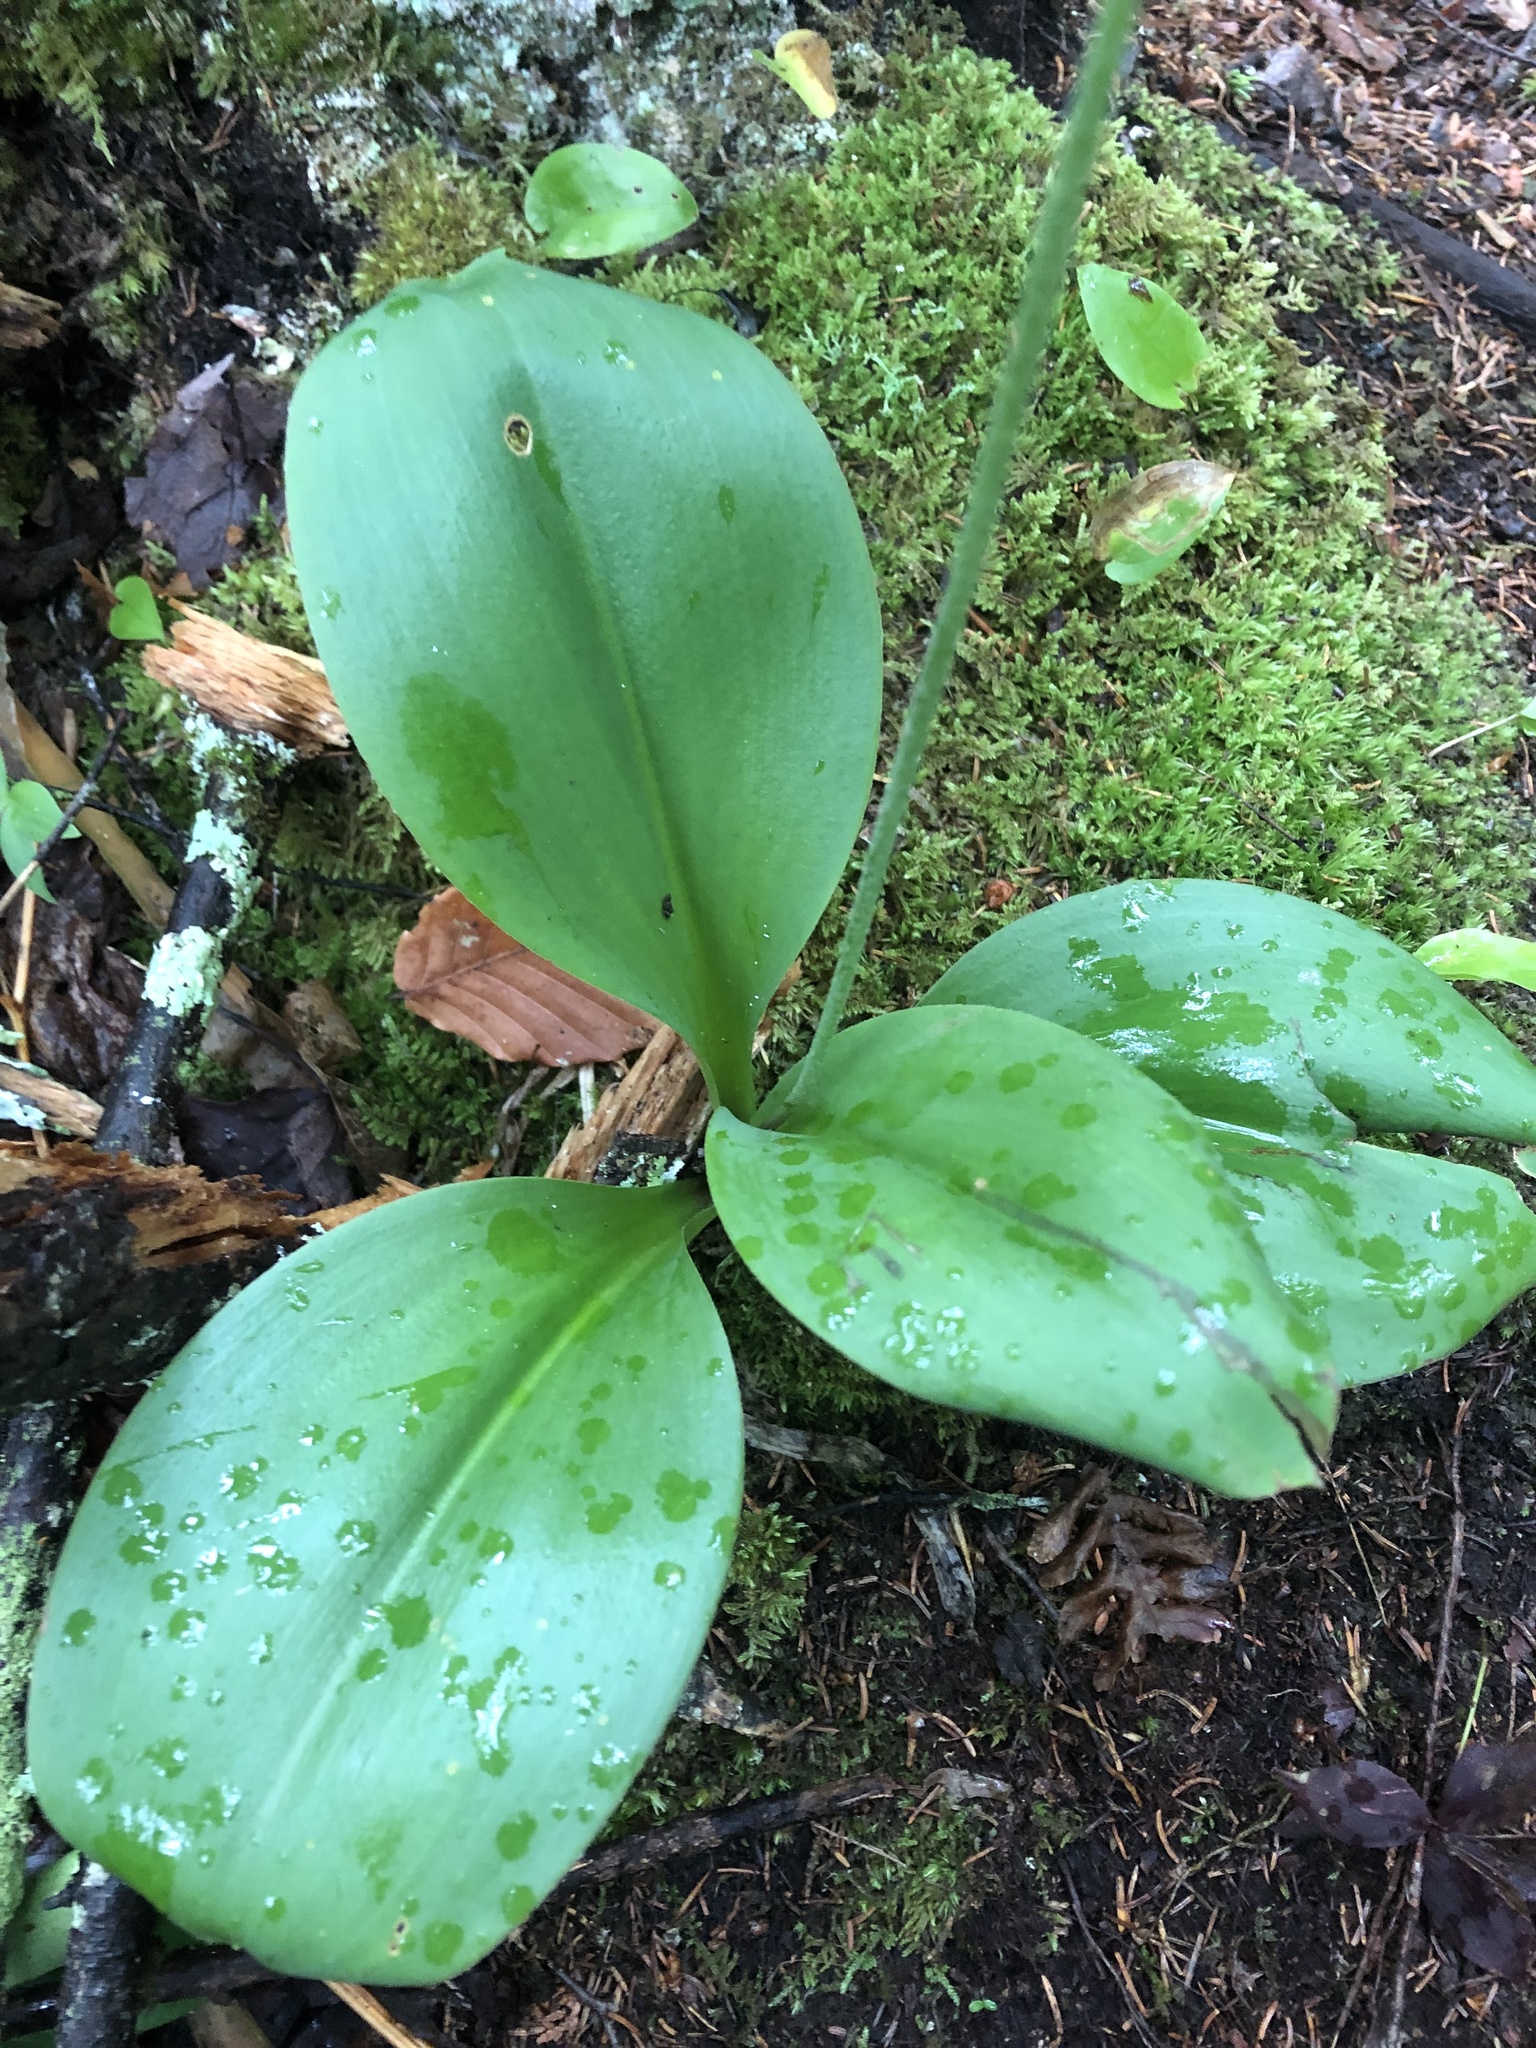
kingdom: Plantae
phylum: Tracheophyta
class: Liliopsida
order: Liliales
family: Liliaceae
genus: Clintonia
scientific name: Clintonia borealis
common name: Yellow clintonia
